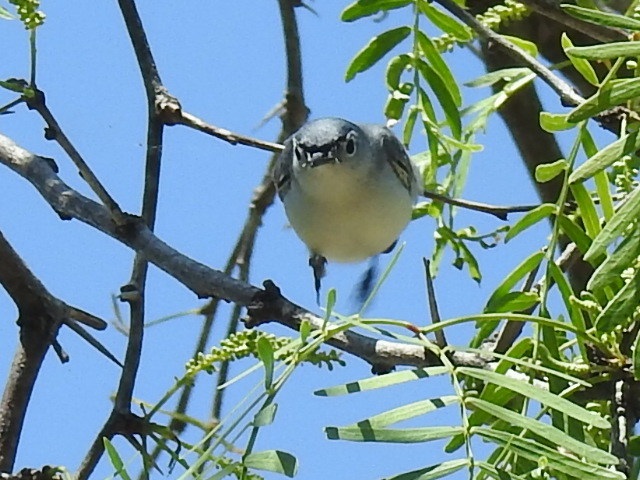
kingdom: Animalia
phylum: Chordata
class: Aves
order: Passeriformes
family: Polioptilidae
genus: Polioptila
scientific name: Polioptila caerulea
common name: Blue-gray gnatcatcher
